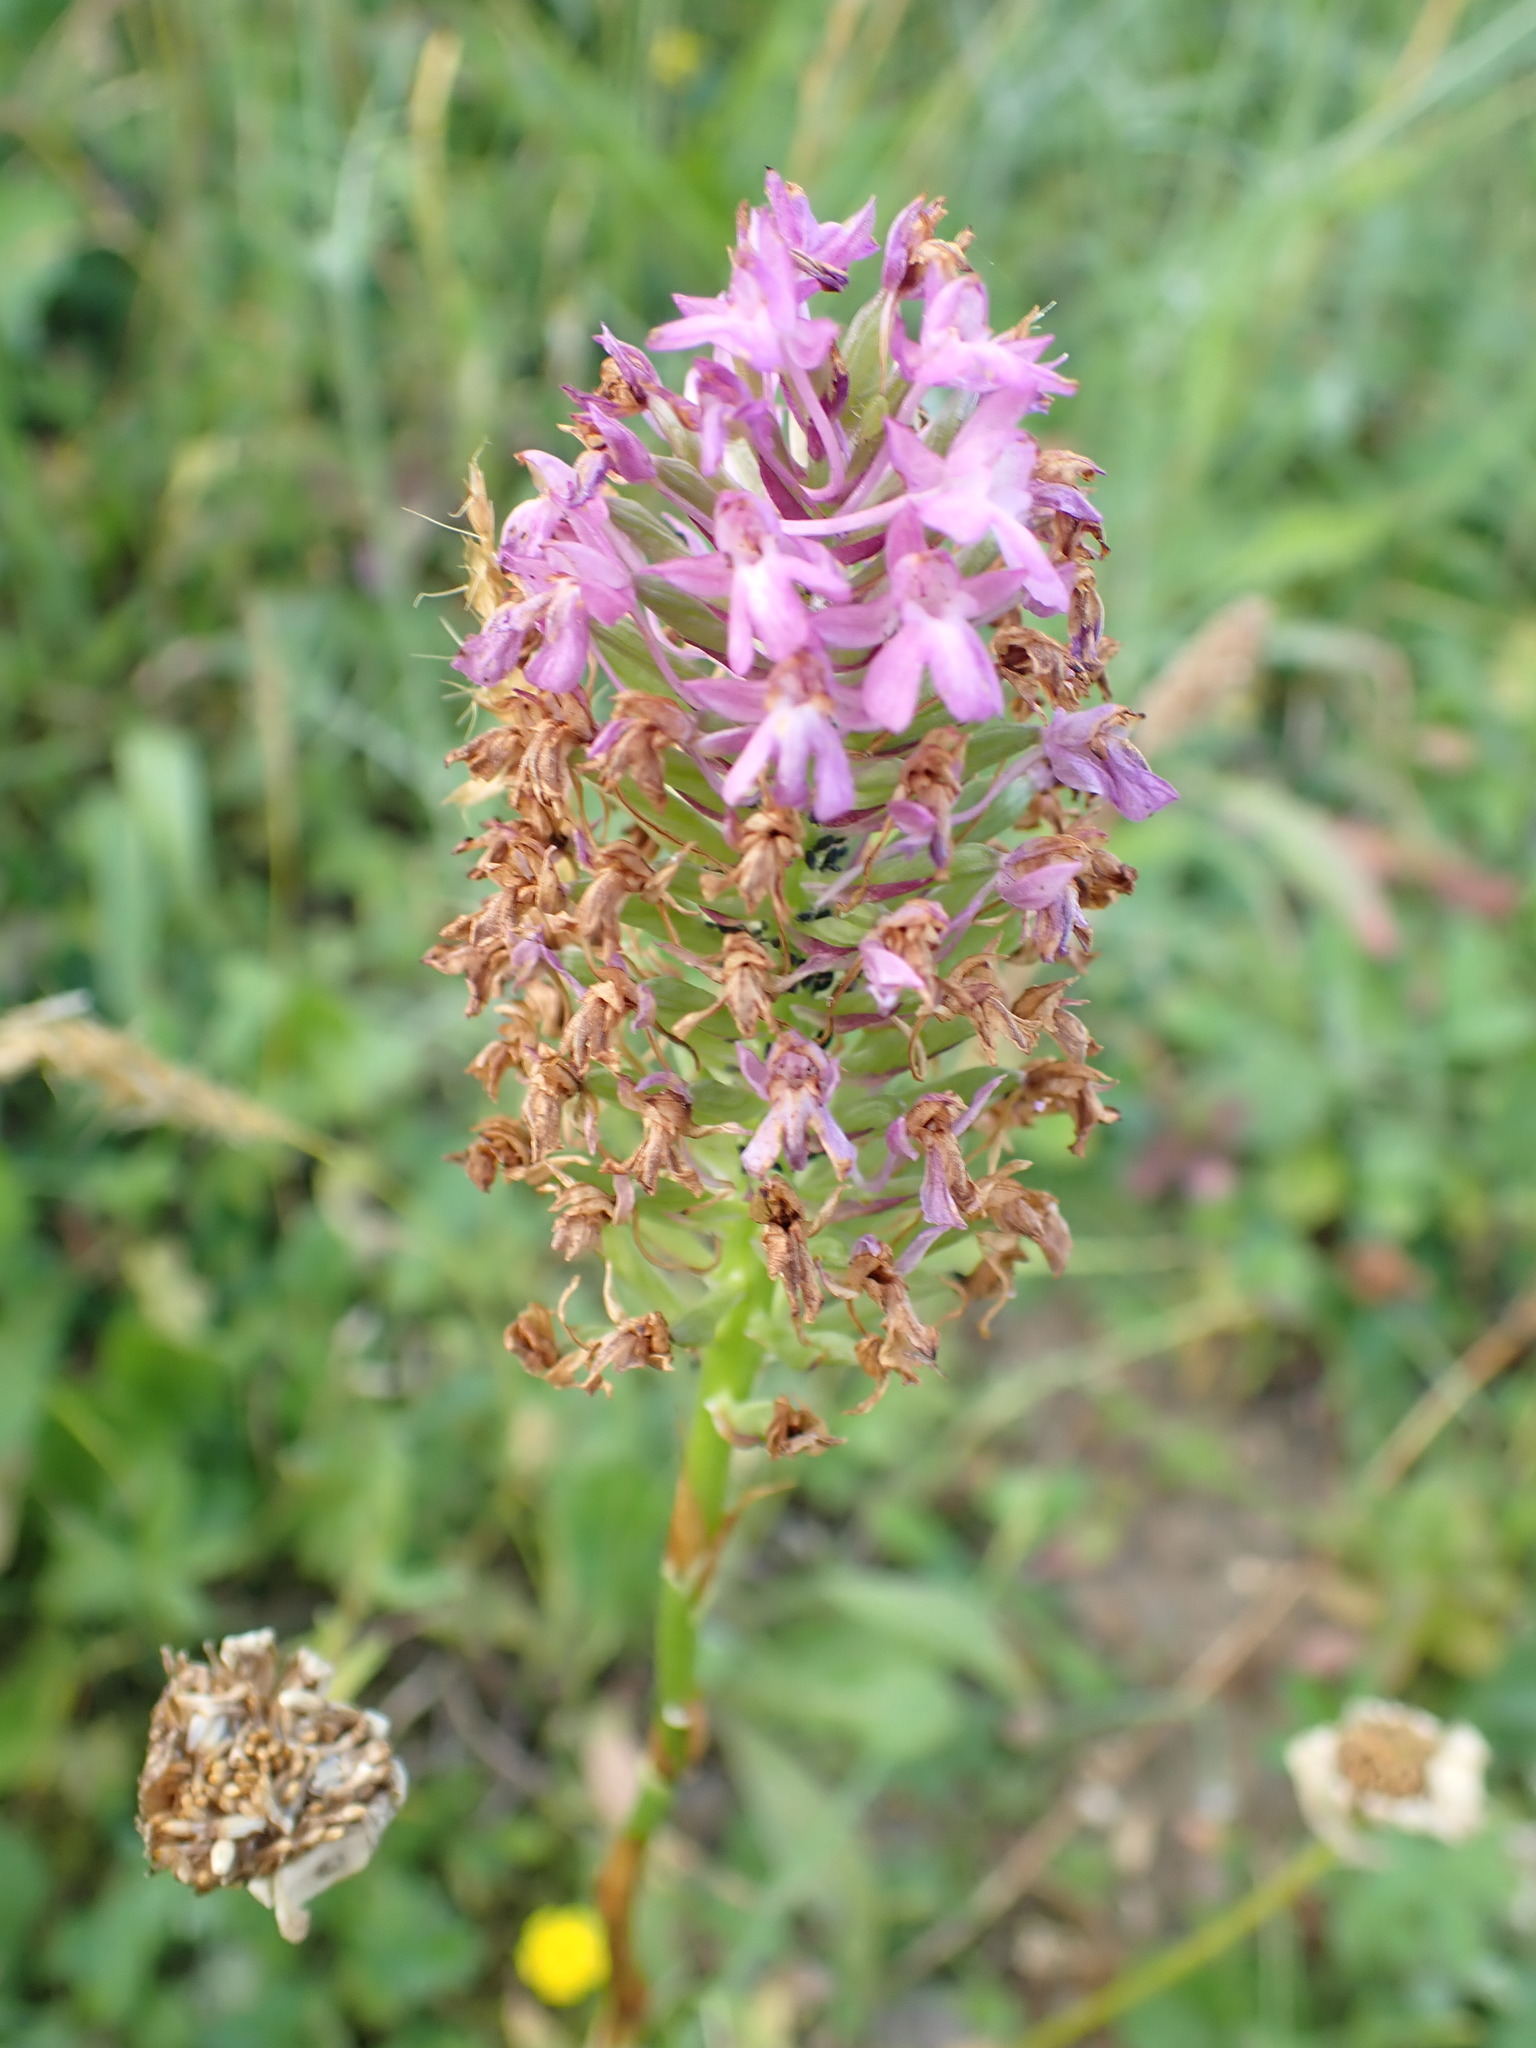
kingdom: Plantae
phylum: Tracheophyta
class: Liliopsida
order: Asparagales
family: Orchidaceae
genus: Anacamptis
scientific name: Anacamptis pyramidalis
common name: Pyramidal orchid
